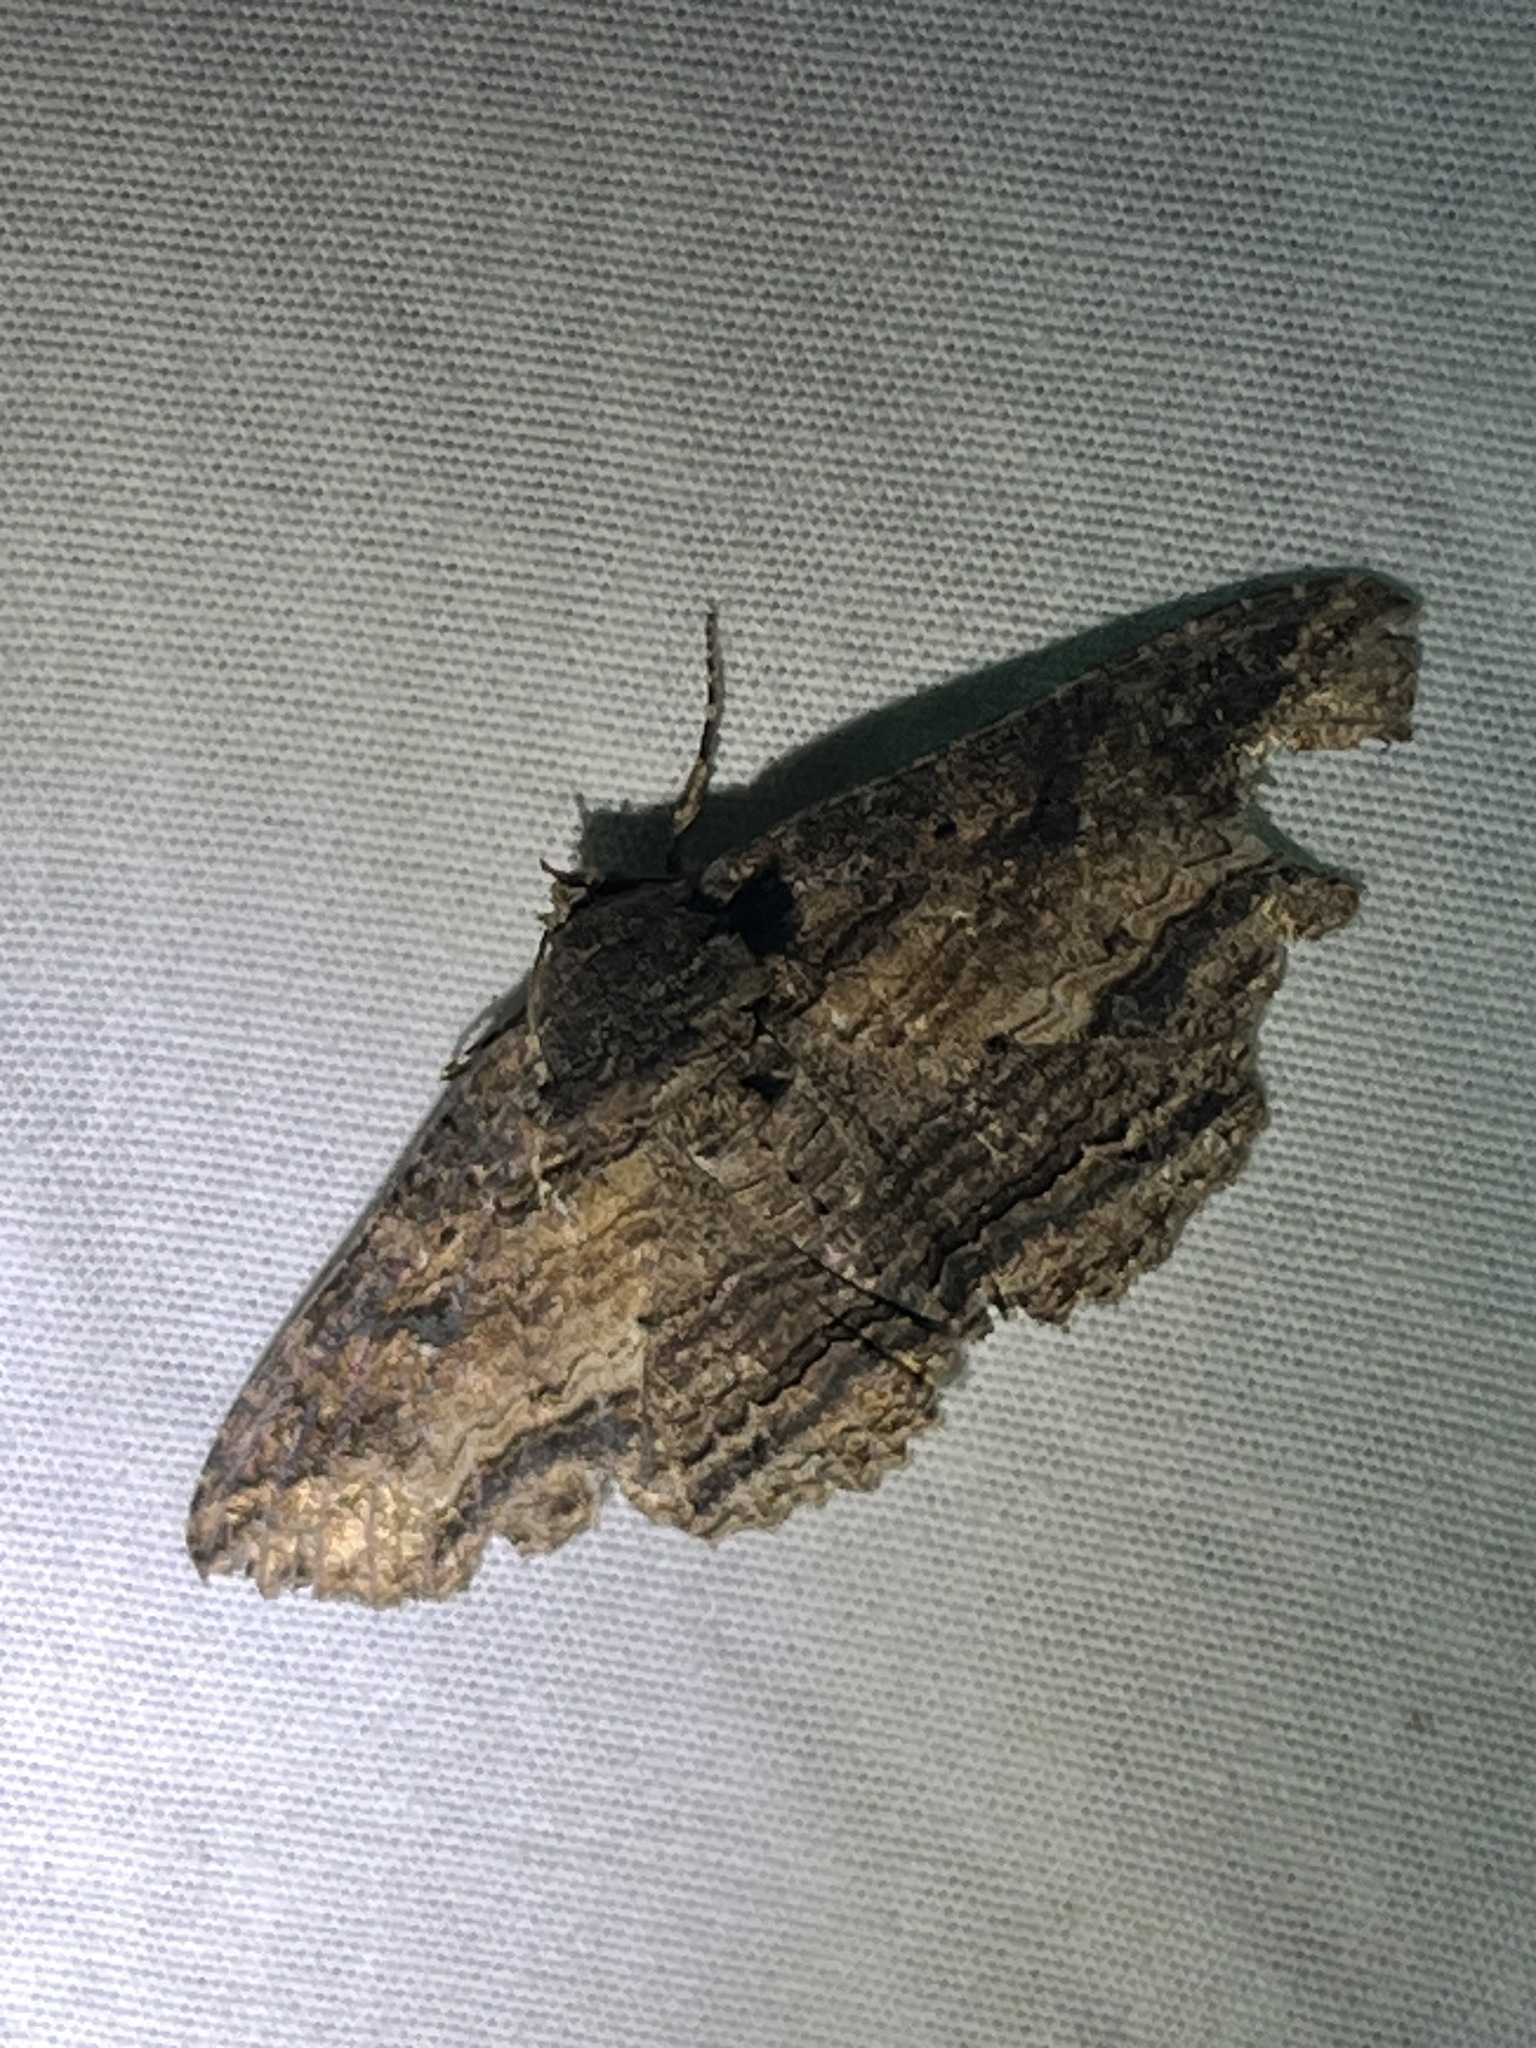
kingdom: Animalia
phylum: Arthropoda
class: Insecta
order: Lepidoptera
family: Erebidae
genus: Zale
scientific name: Zale lunata
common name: Lunate zale moth
